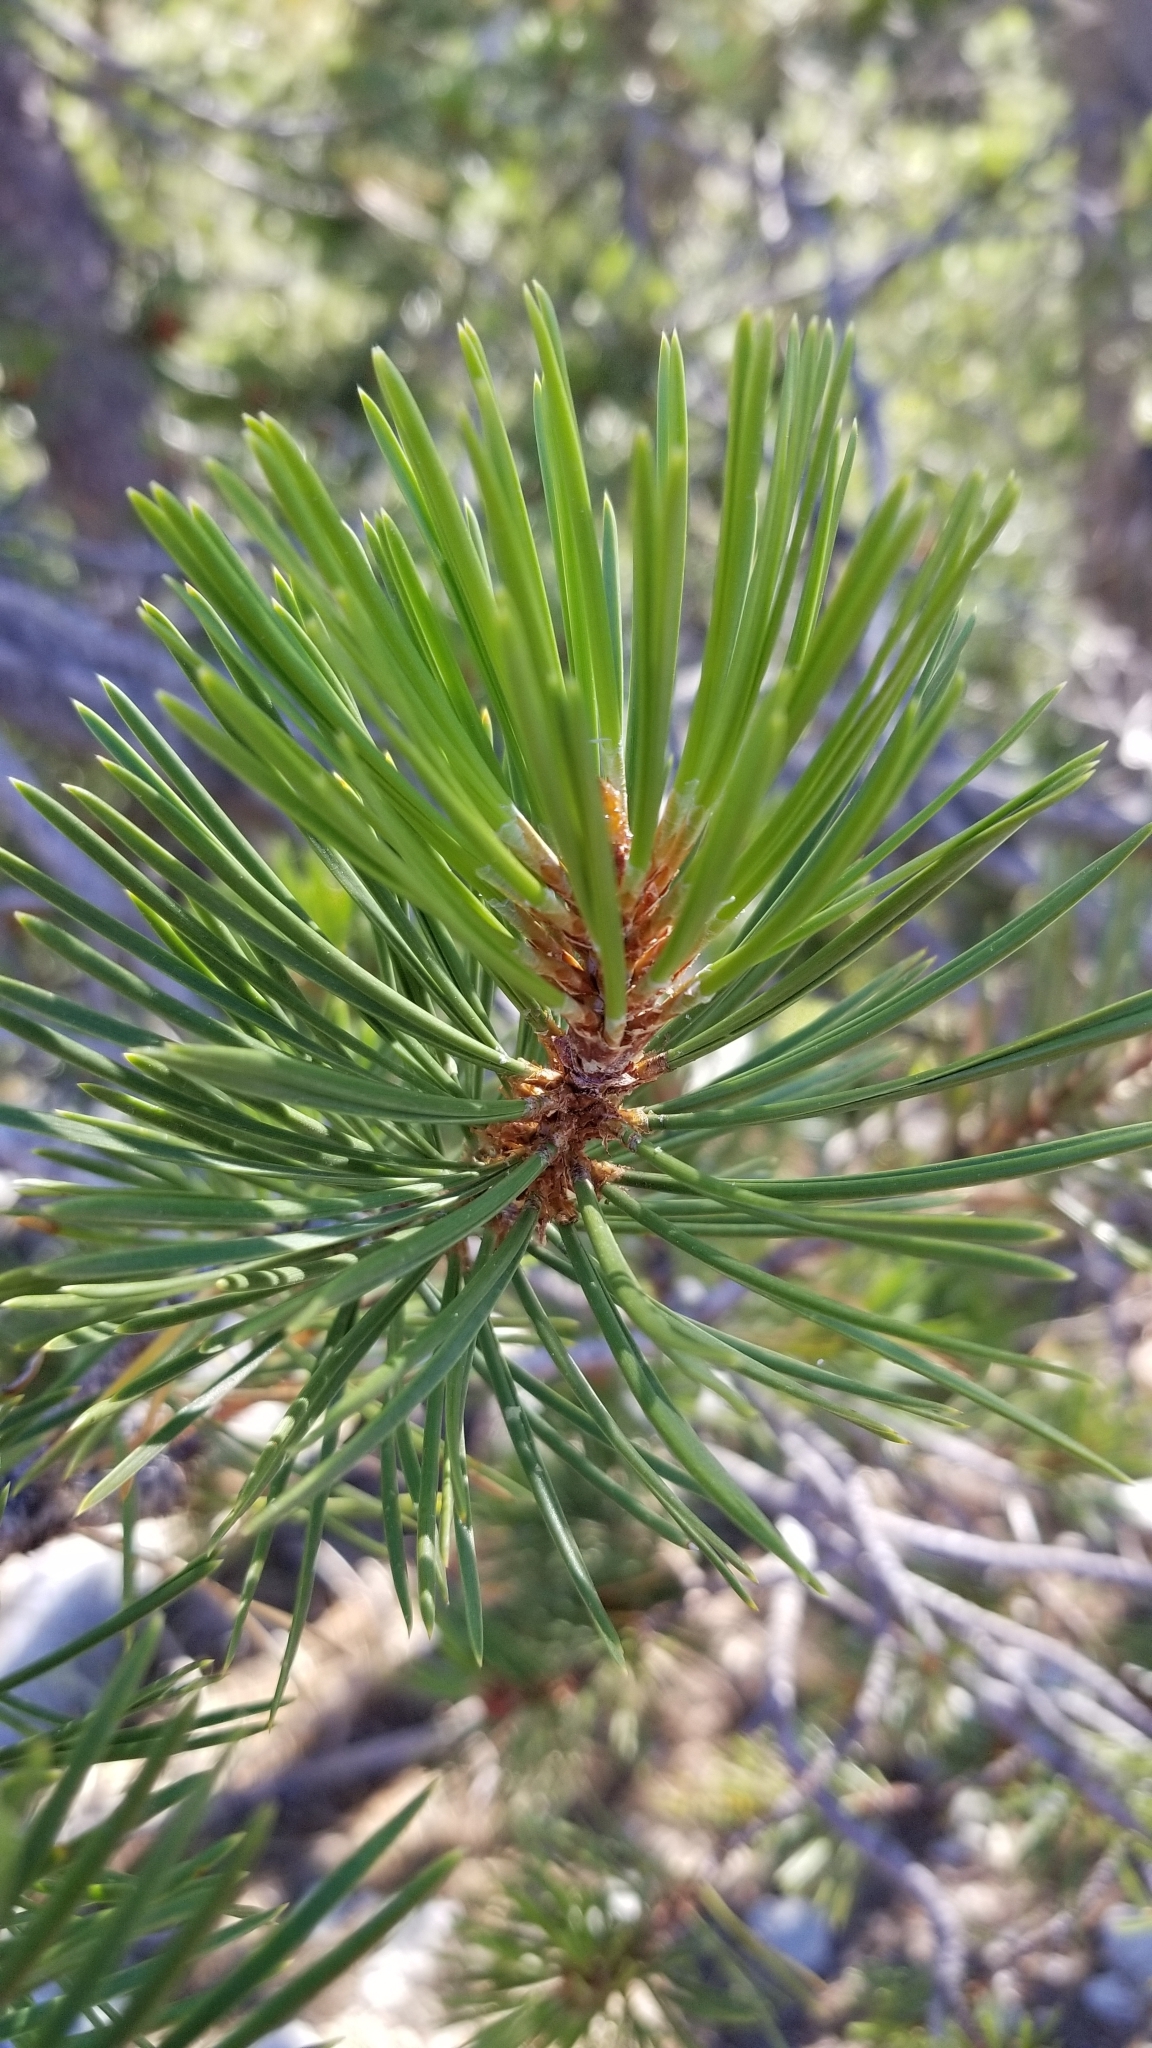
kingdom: Plantae
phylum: Tracheophyta
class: Pinopsida
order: Pinales
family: Pinaceae
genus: Pinus
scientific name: Pinus contorta
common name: Lodgepole pine
